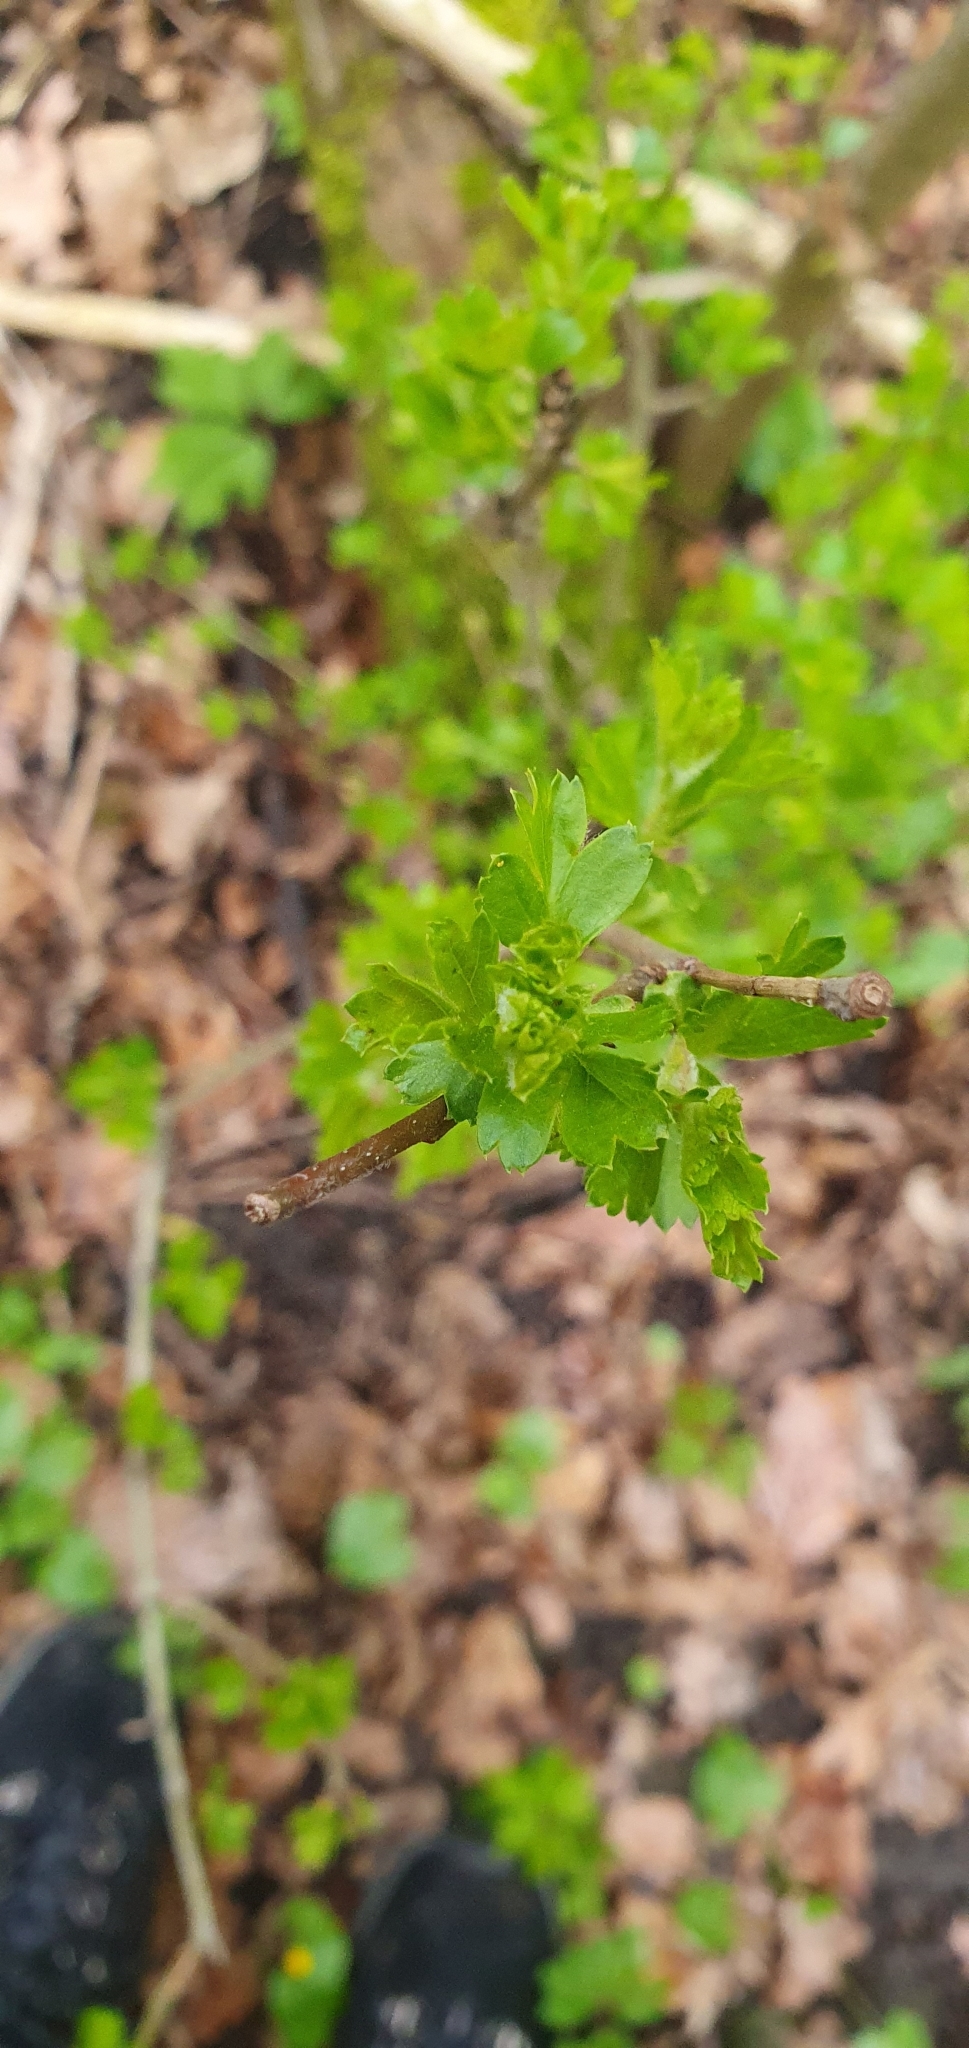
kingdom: Plantae
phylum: Tracheophyta
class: Magnoliopsida
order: Saxifragales
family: Grossulariaceae
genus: Ribes
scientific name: Ribes uva-crispa
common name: Gooseberry
